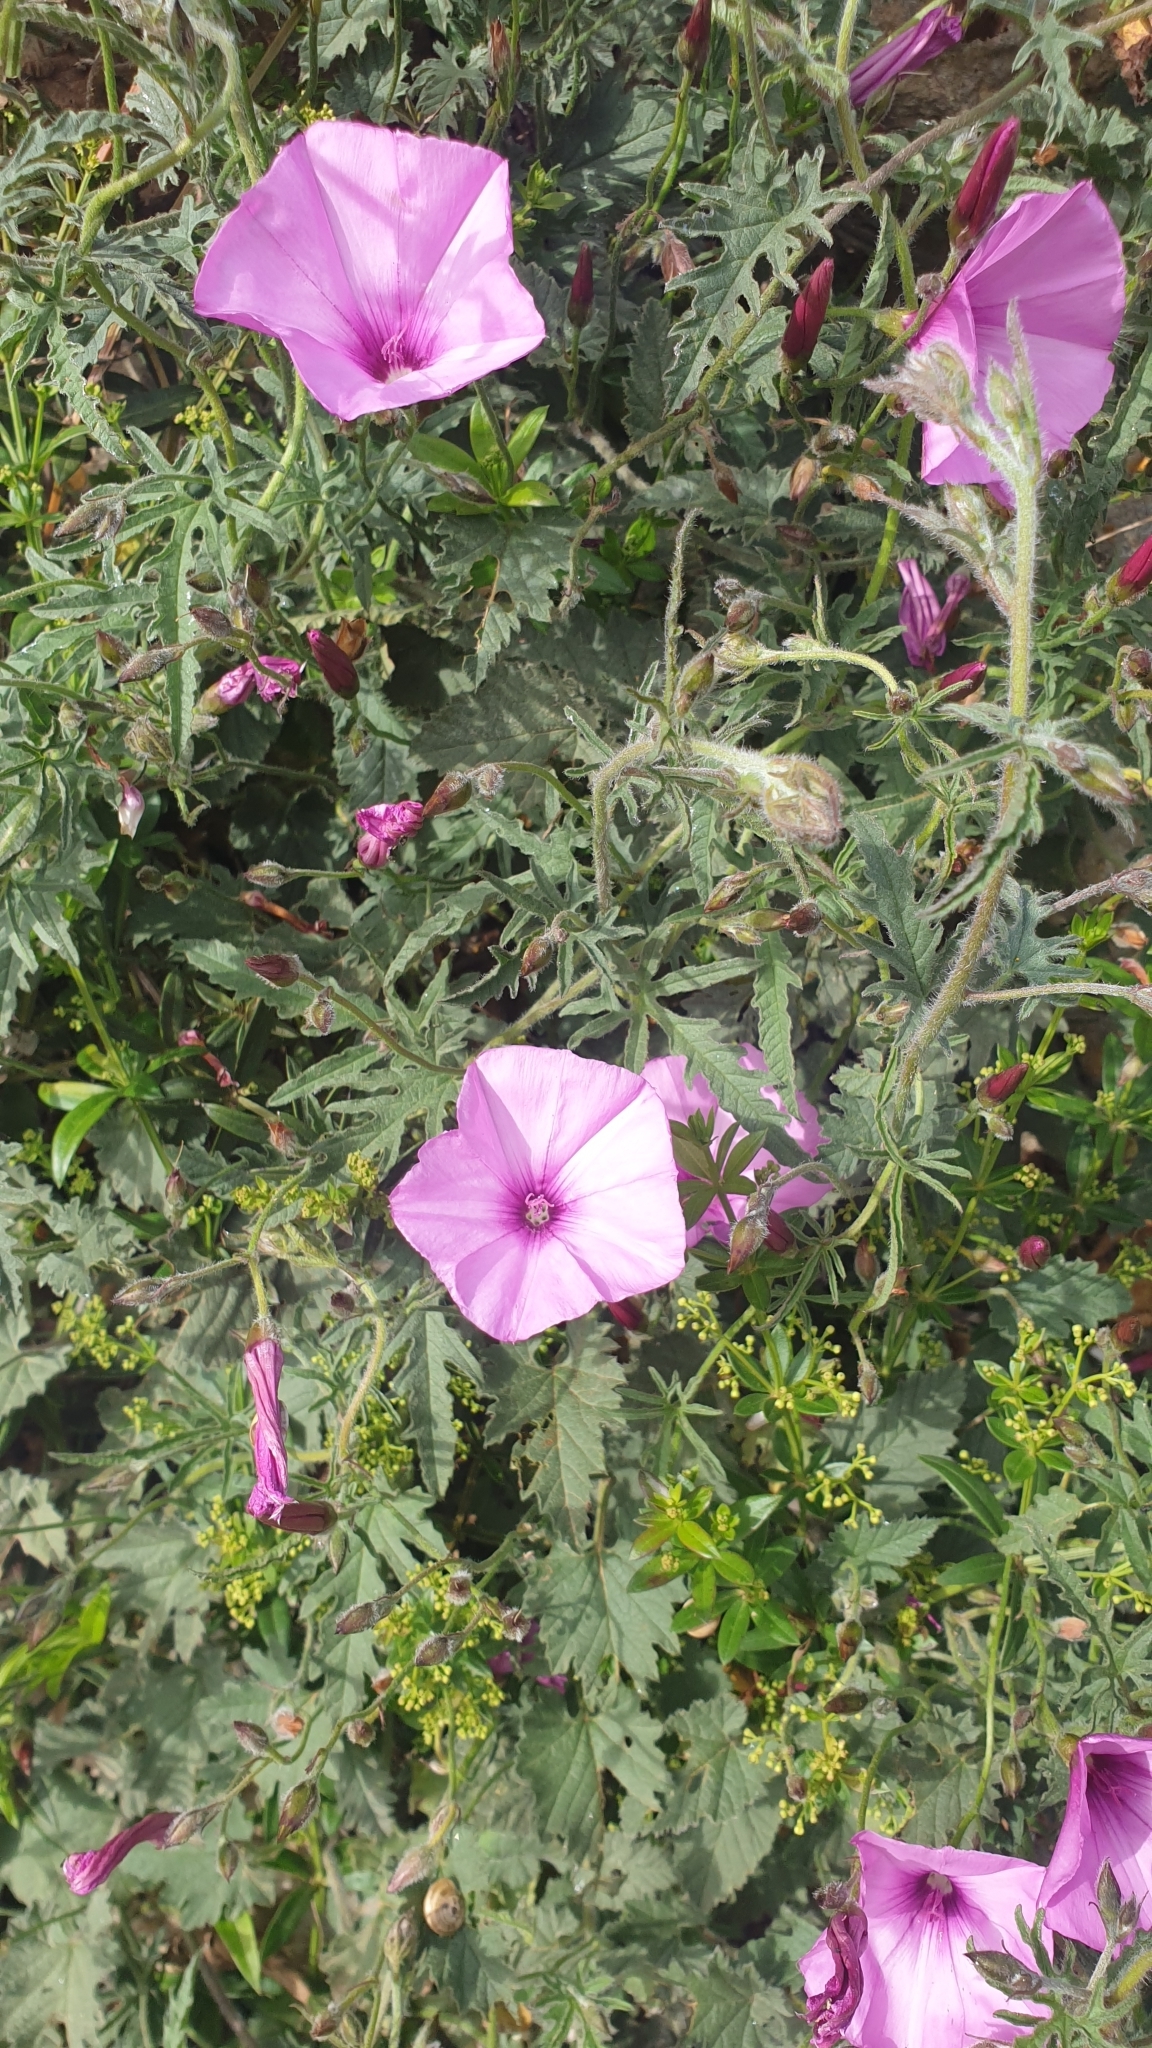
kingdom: Plantae
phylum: Tracheophyta
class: Magnoliopsida
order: Solanales
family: Convolvulaceae
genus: Convolvulus
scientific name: Convolvulus althaeoides
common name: Mallow bindweed
